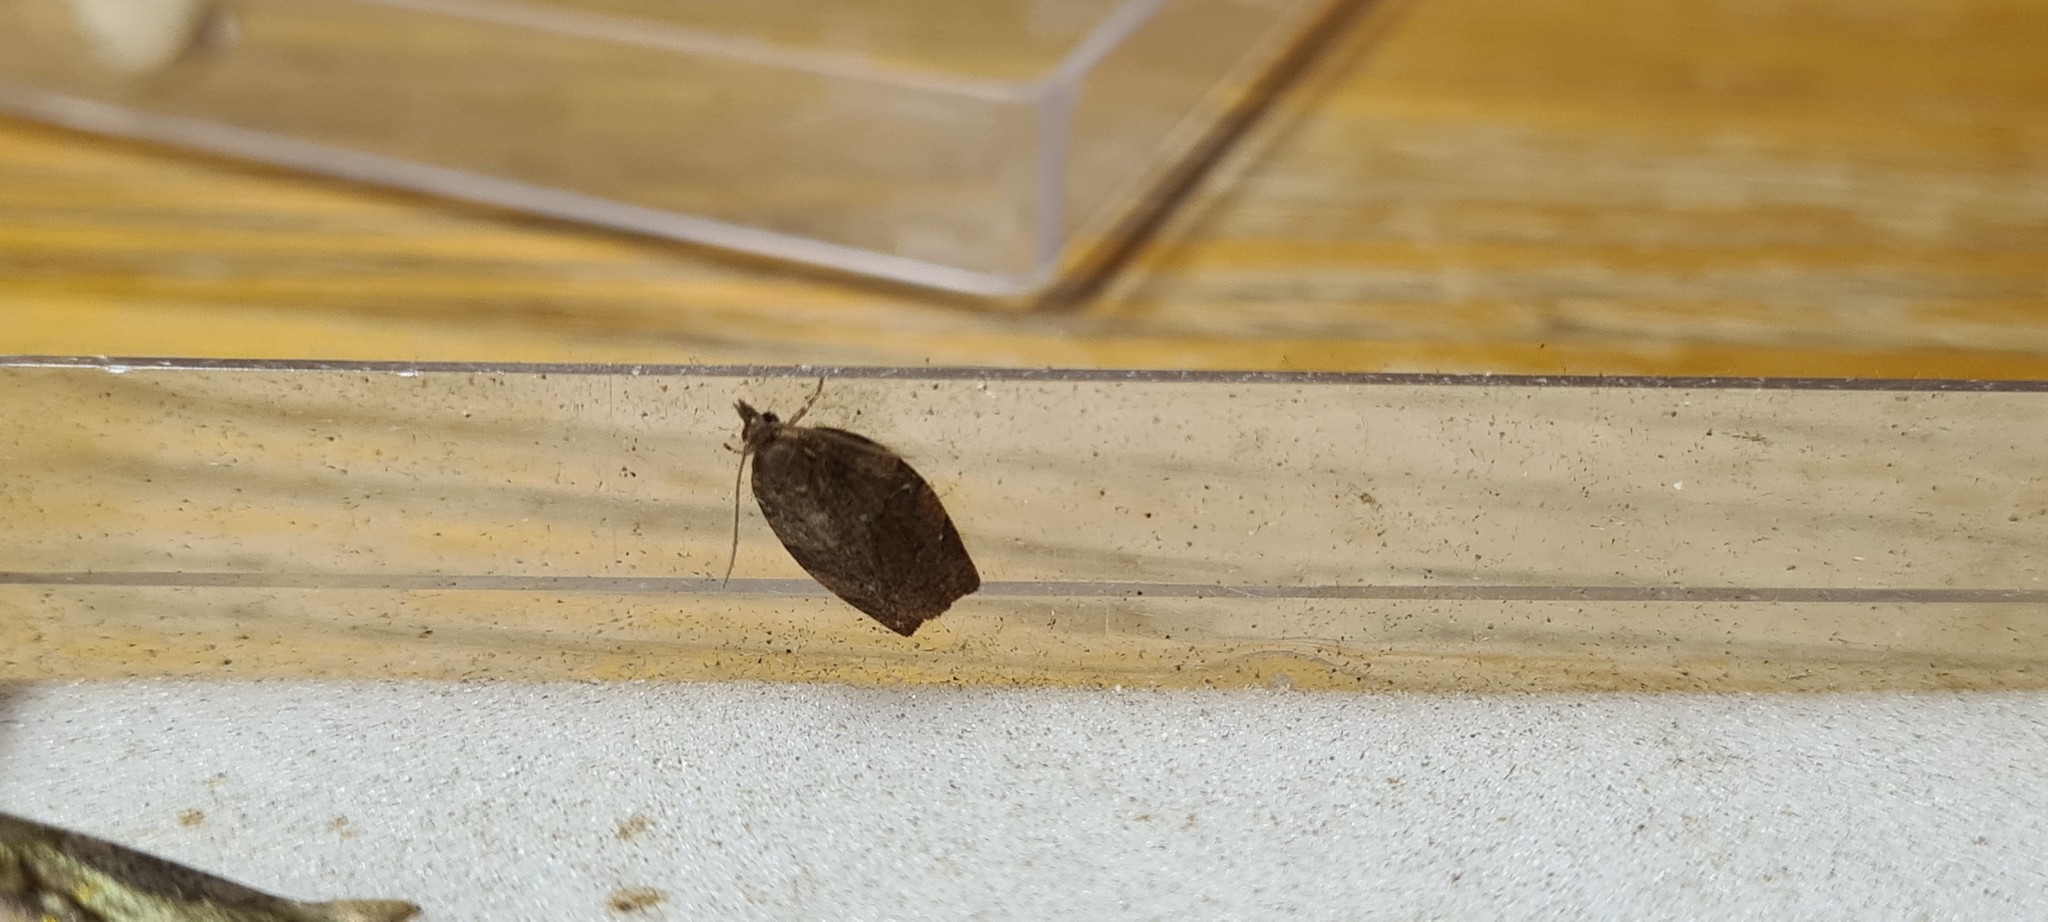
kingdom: Animalia
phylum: Arthropoda
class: Insecta
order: Lepidoptera
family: Tortricidae
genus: Pandemis
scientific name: Pandemis heparana
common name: Dark fruit-tree tortrix
